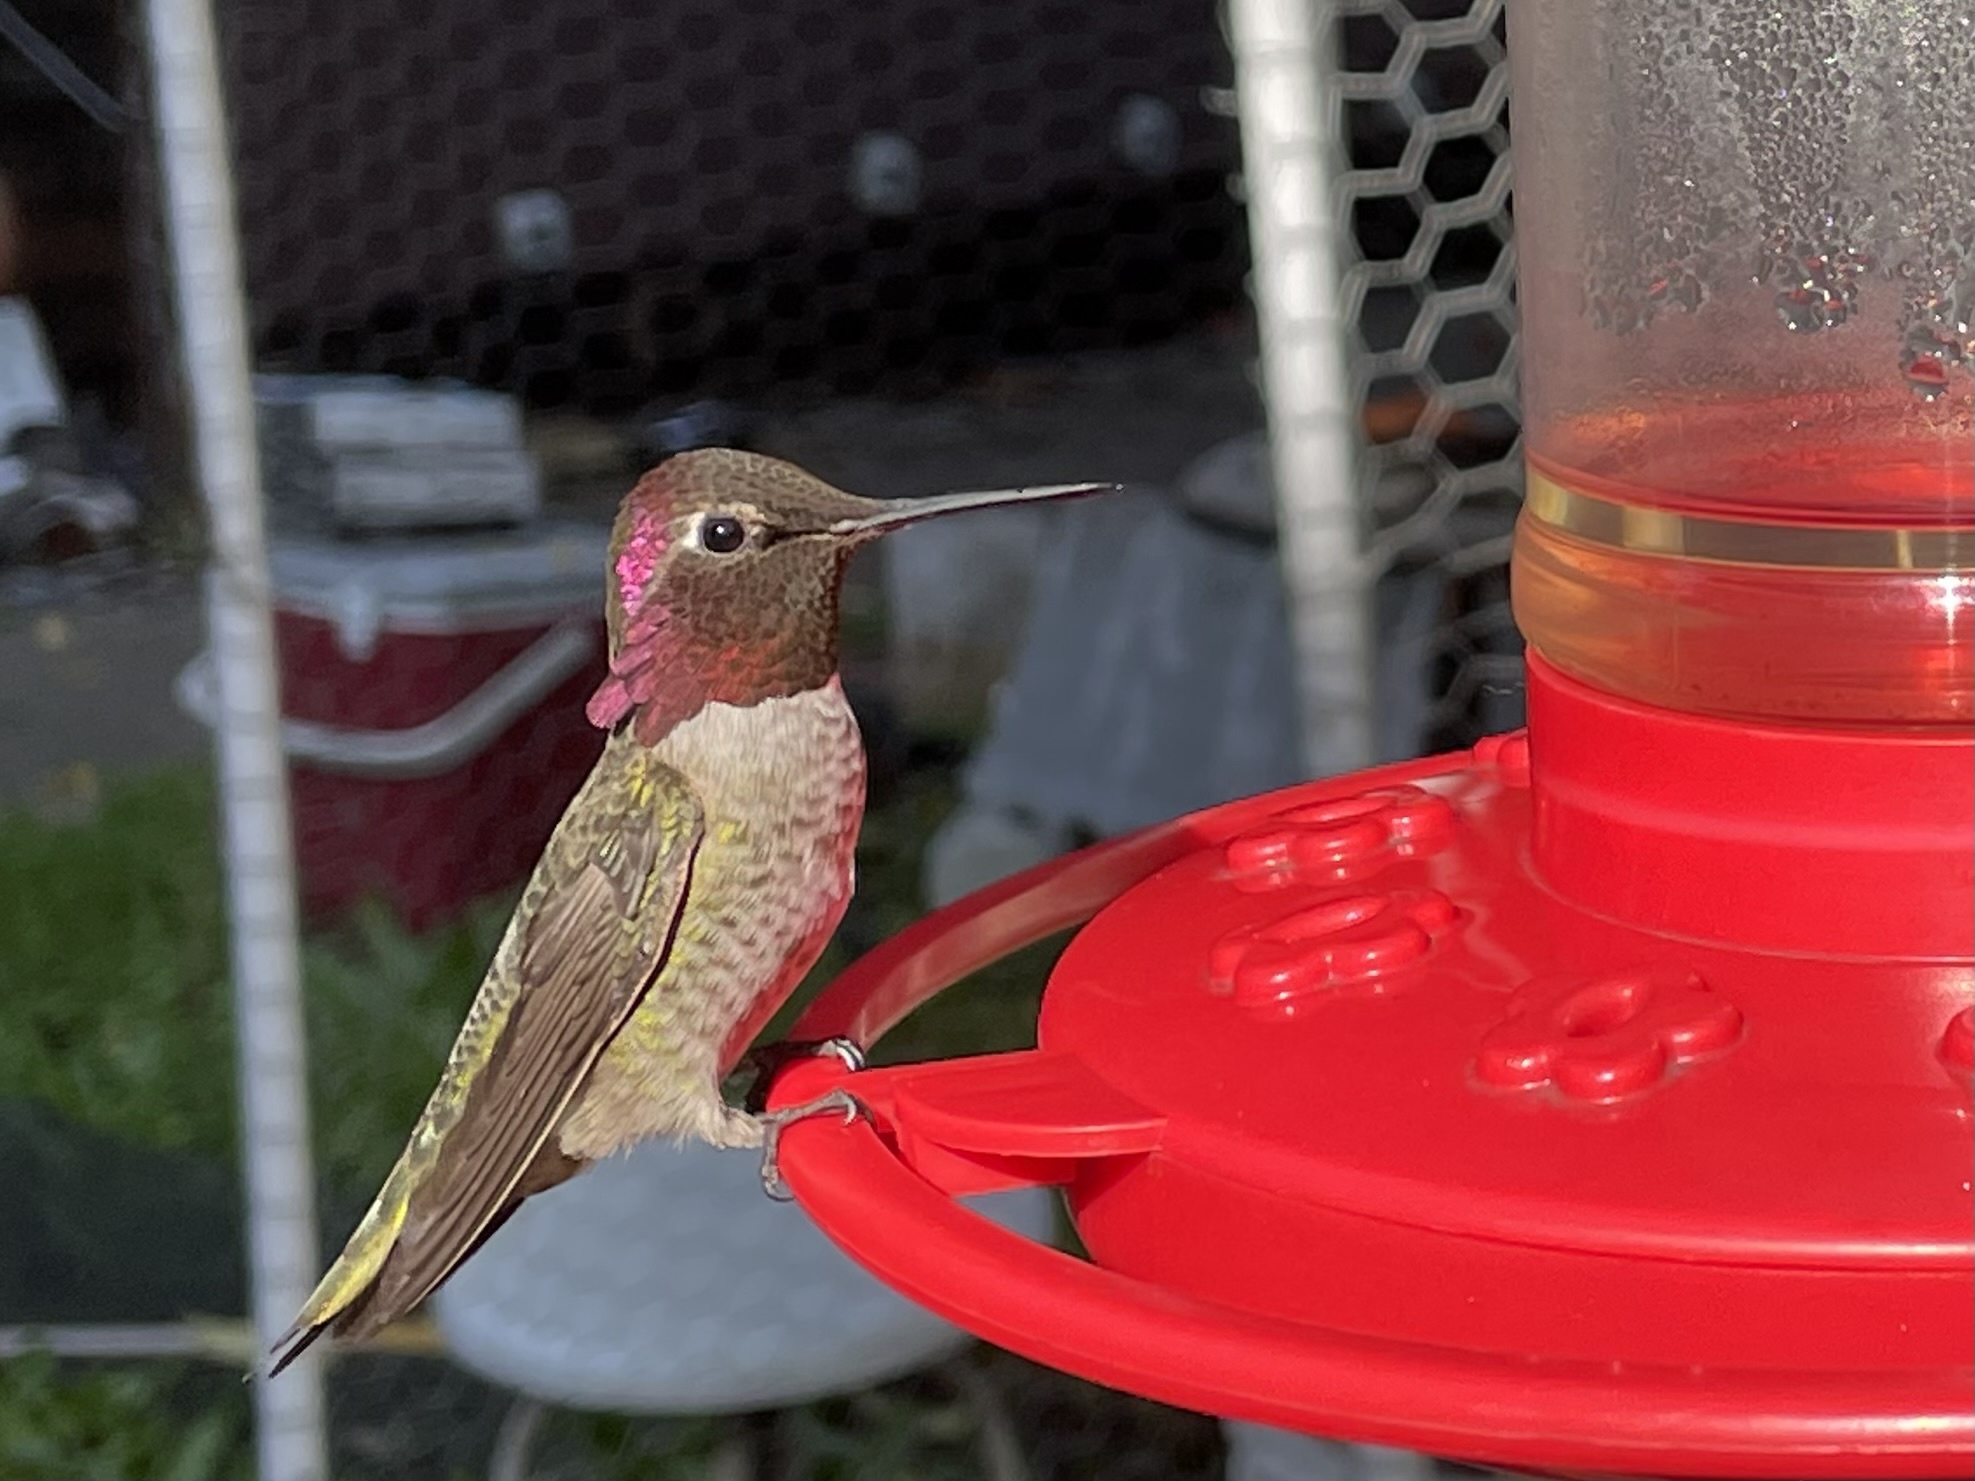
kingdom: Animalia
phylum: Chordata
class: Aves
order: Apodiformes
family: Trochilidae
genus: Calypte
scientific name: Calypte anna
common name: Anna's hummingbird
